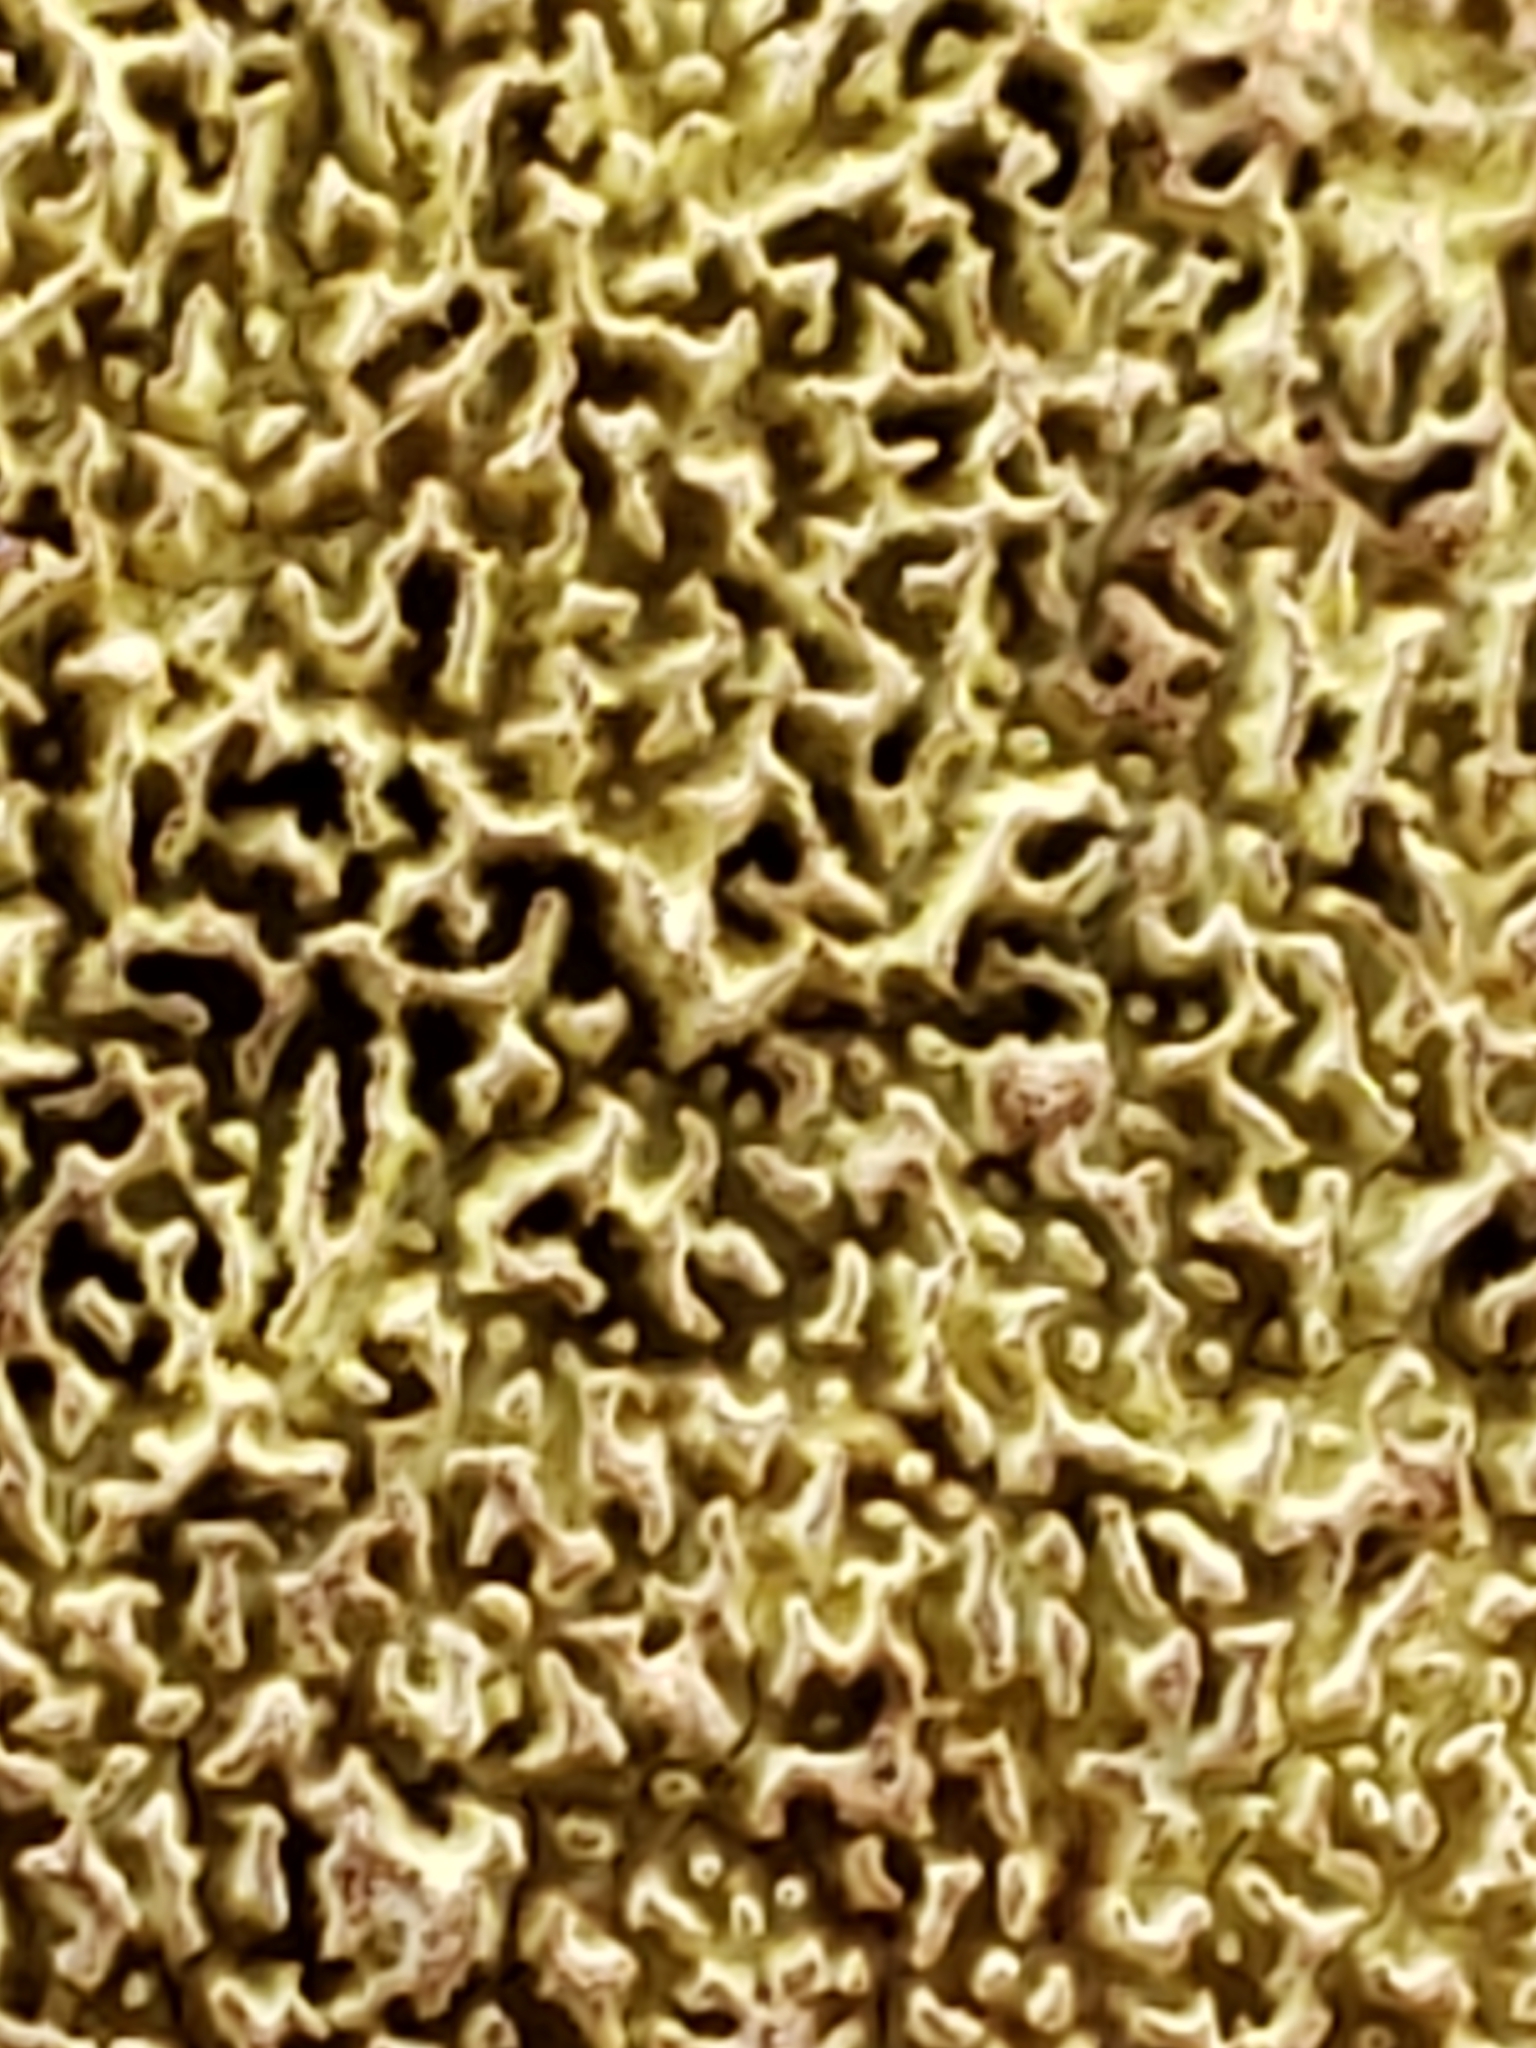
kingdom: Fungi
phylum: Basidiomycota
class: Agaricomycetes
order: Polyporales
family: Irpicaceae
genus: Irpex
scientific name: Irpex lacteus
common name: Milk-white toothed polypore
